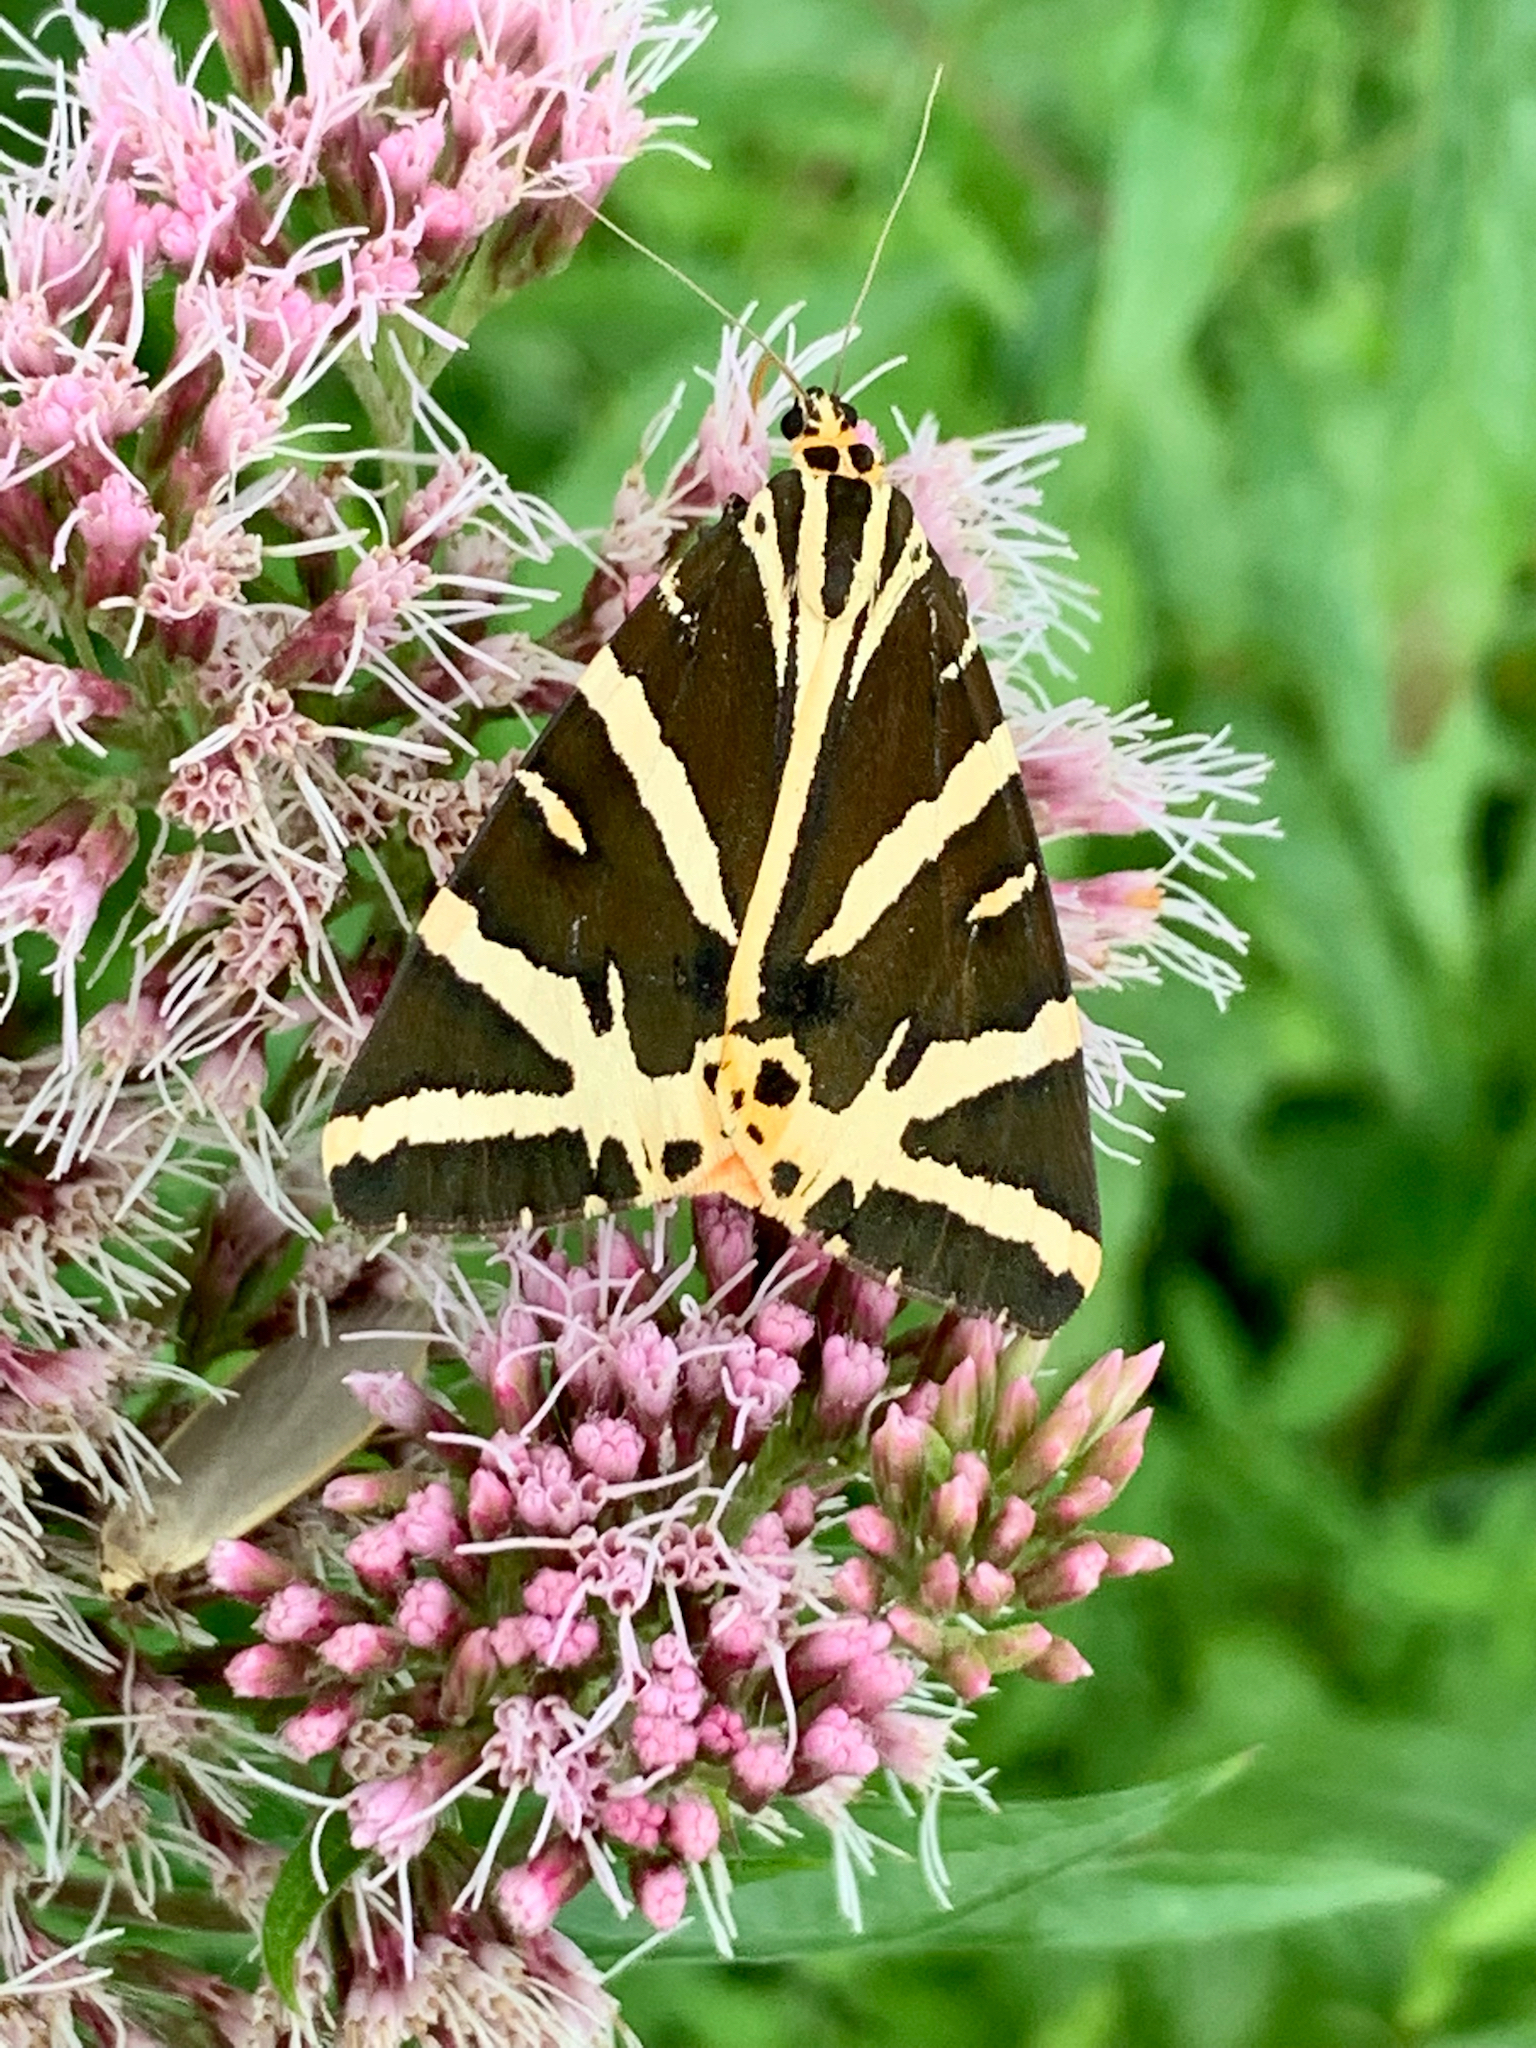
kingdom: Animalia
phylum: Arthropoda
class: Insecta
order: Lepidoptera
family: Erebidae
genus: Euplagia
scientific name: Euplagia quadripunctaria
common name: Jersey tiger
